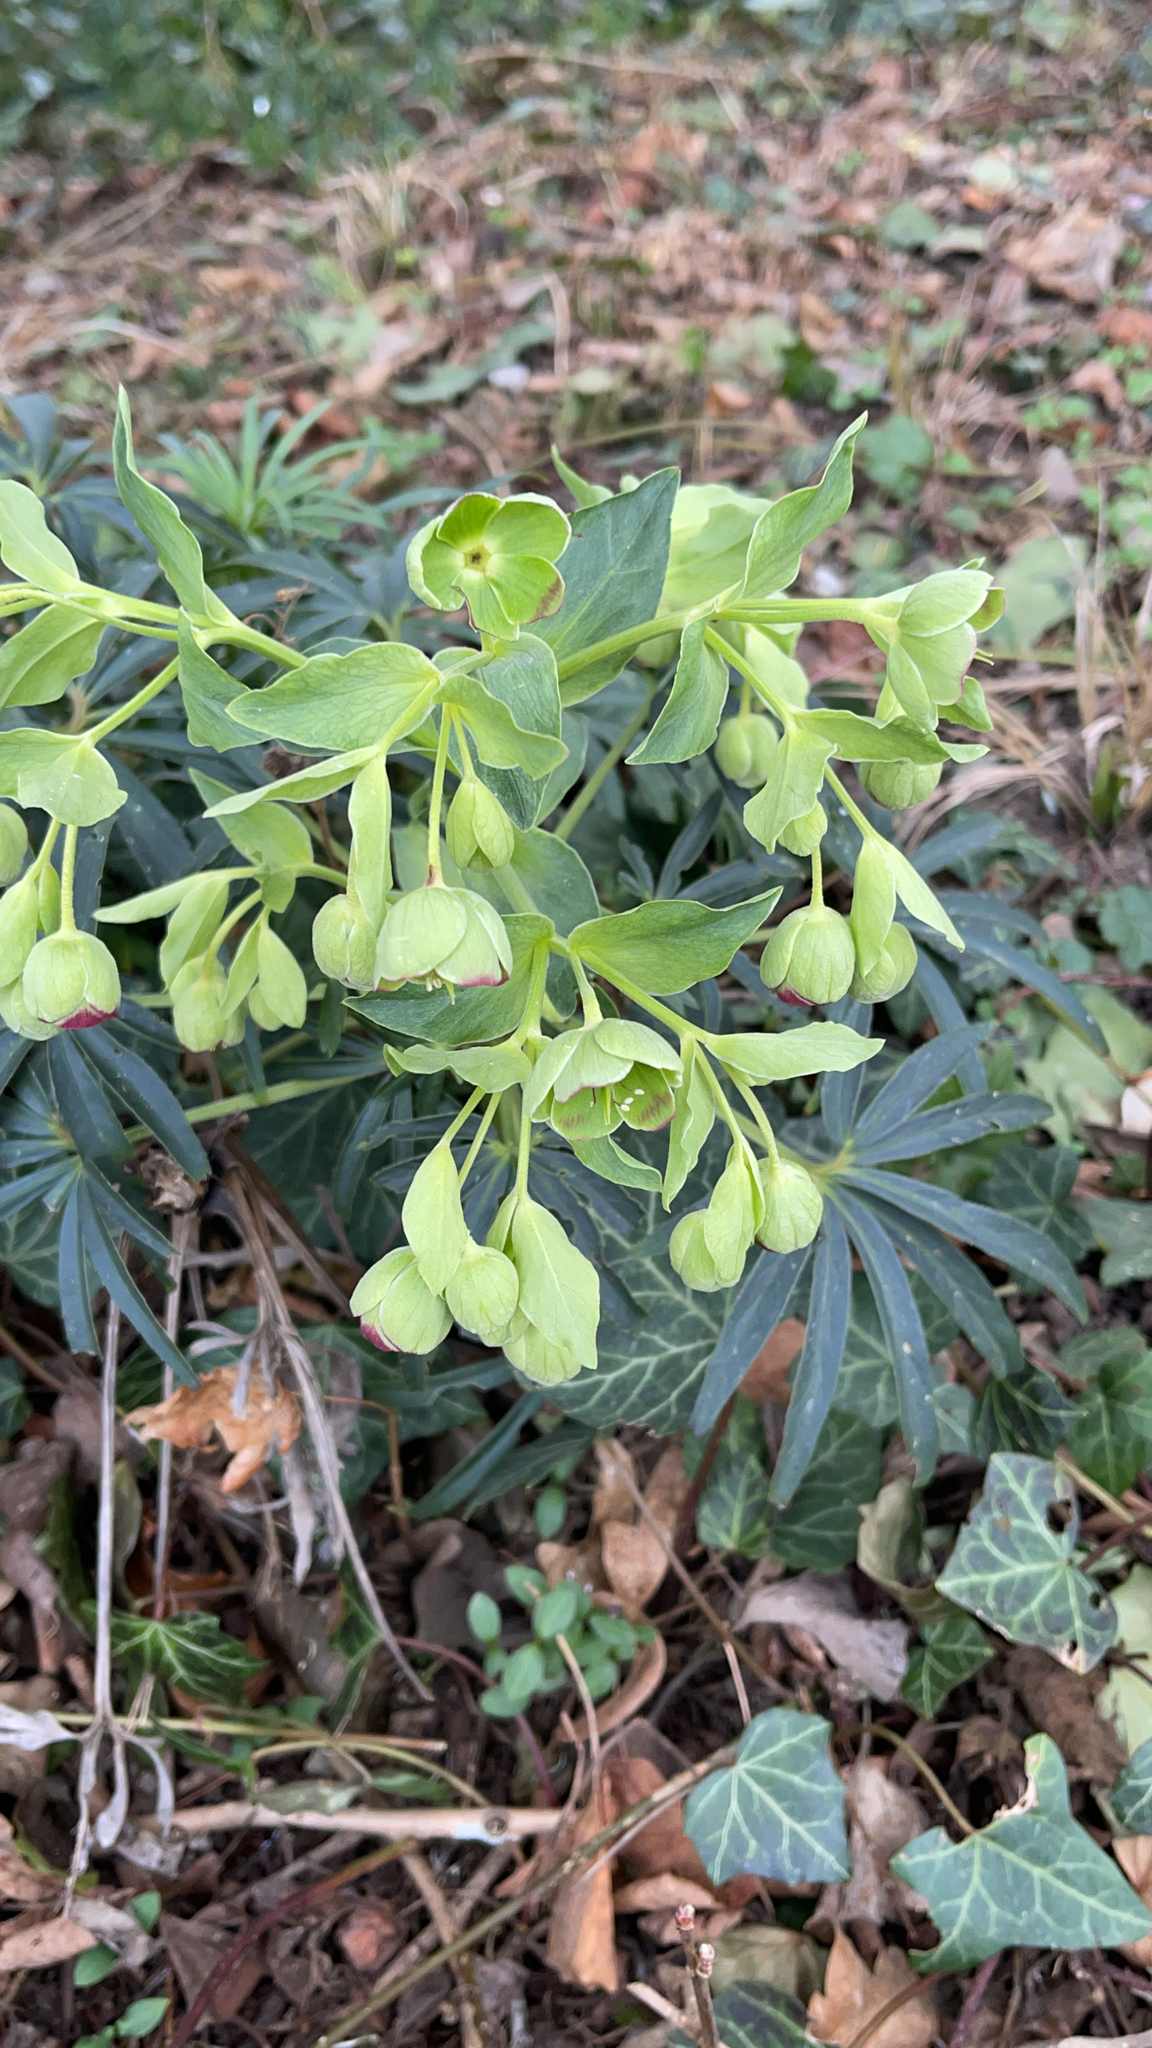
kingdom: Plantae
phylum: Tracheophyta
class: Magnoliopsida
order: Ranunculales
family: Ranunculaceae
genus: Helleborus
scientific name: Helleborus foetidus
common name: Stinking hellebore
